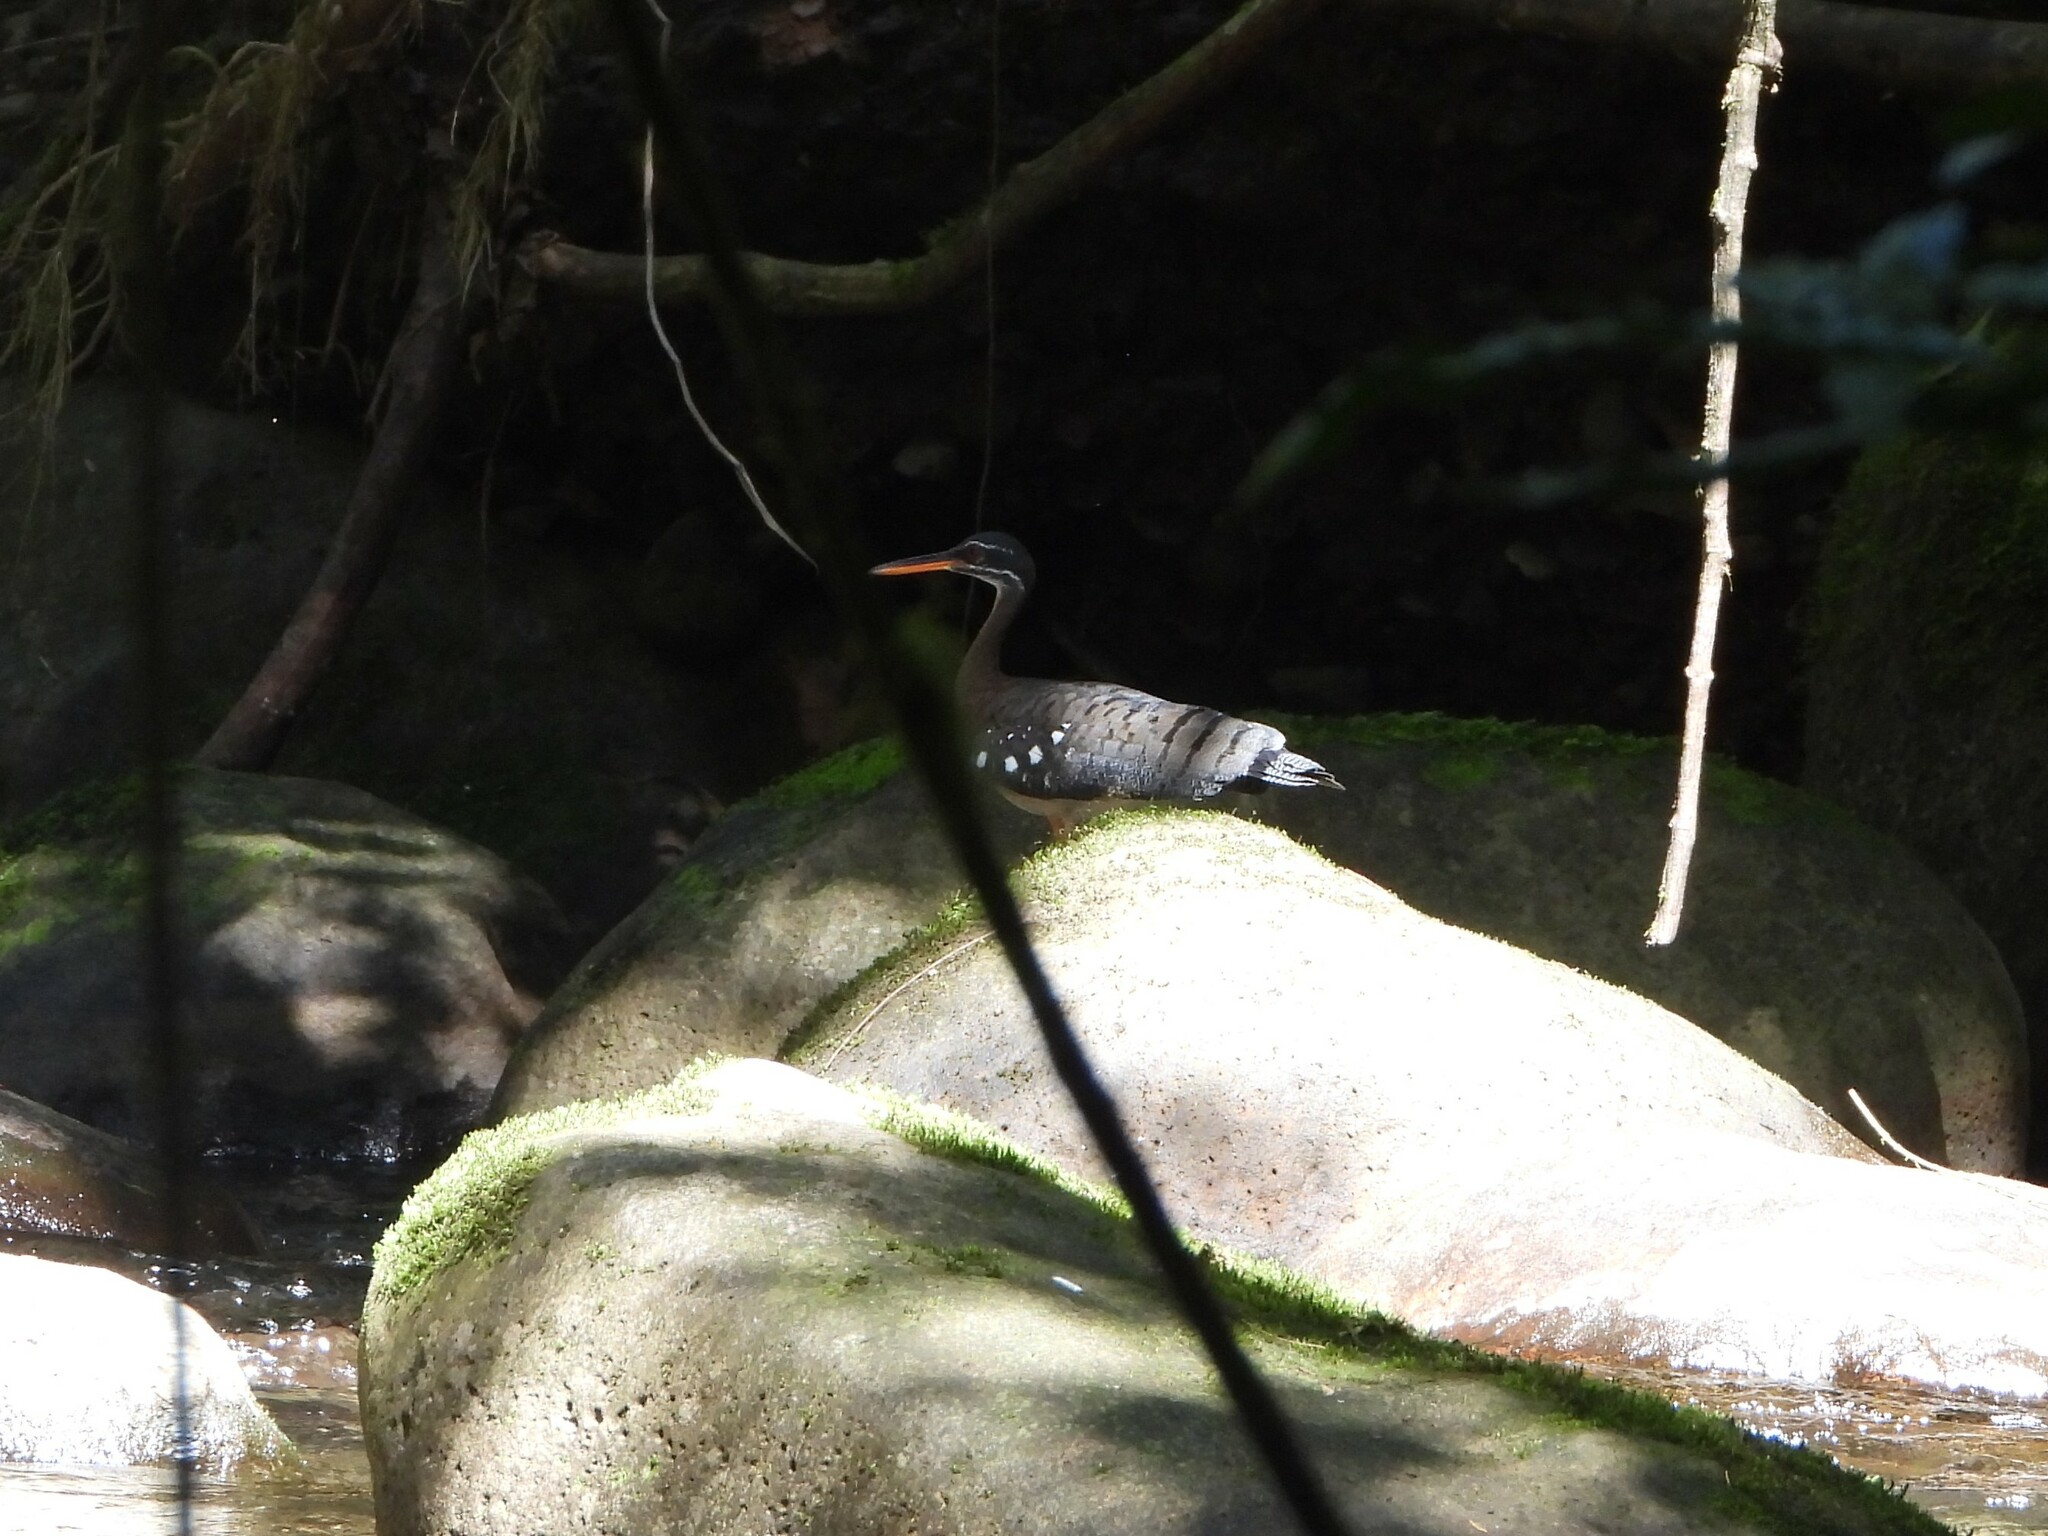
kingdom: Animalia
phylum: Chordata
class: Aves
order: Eurypygiformes
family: Eurypygidae
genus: Eurypyga
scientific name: Eurypyga helias
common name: Sunbittern
